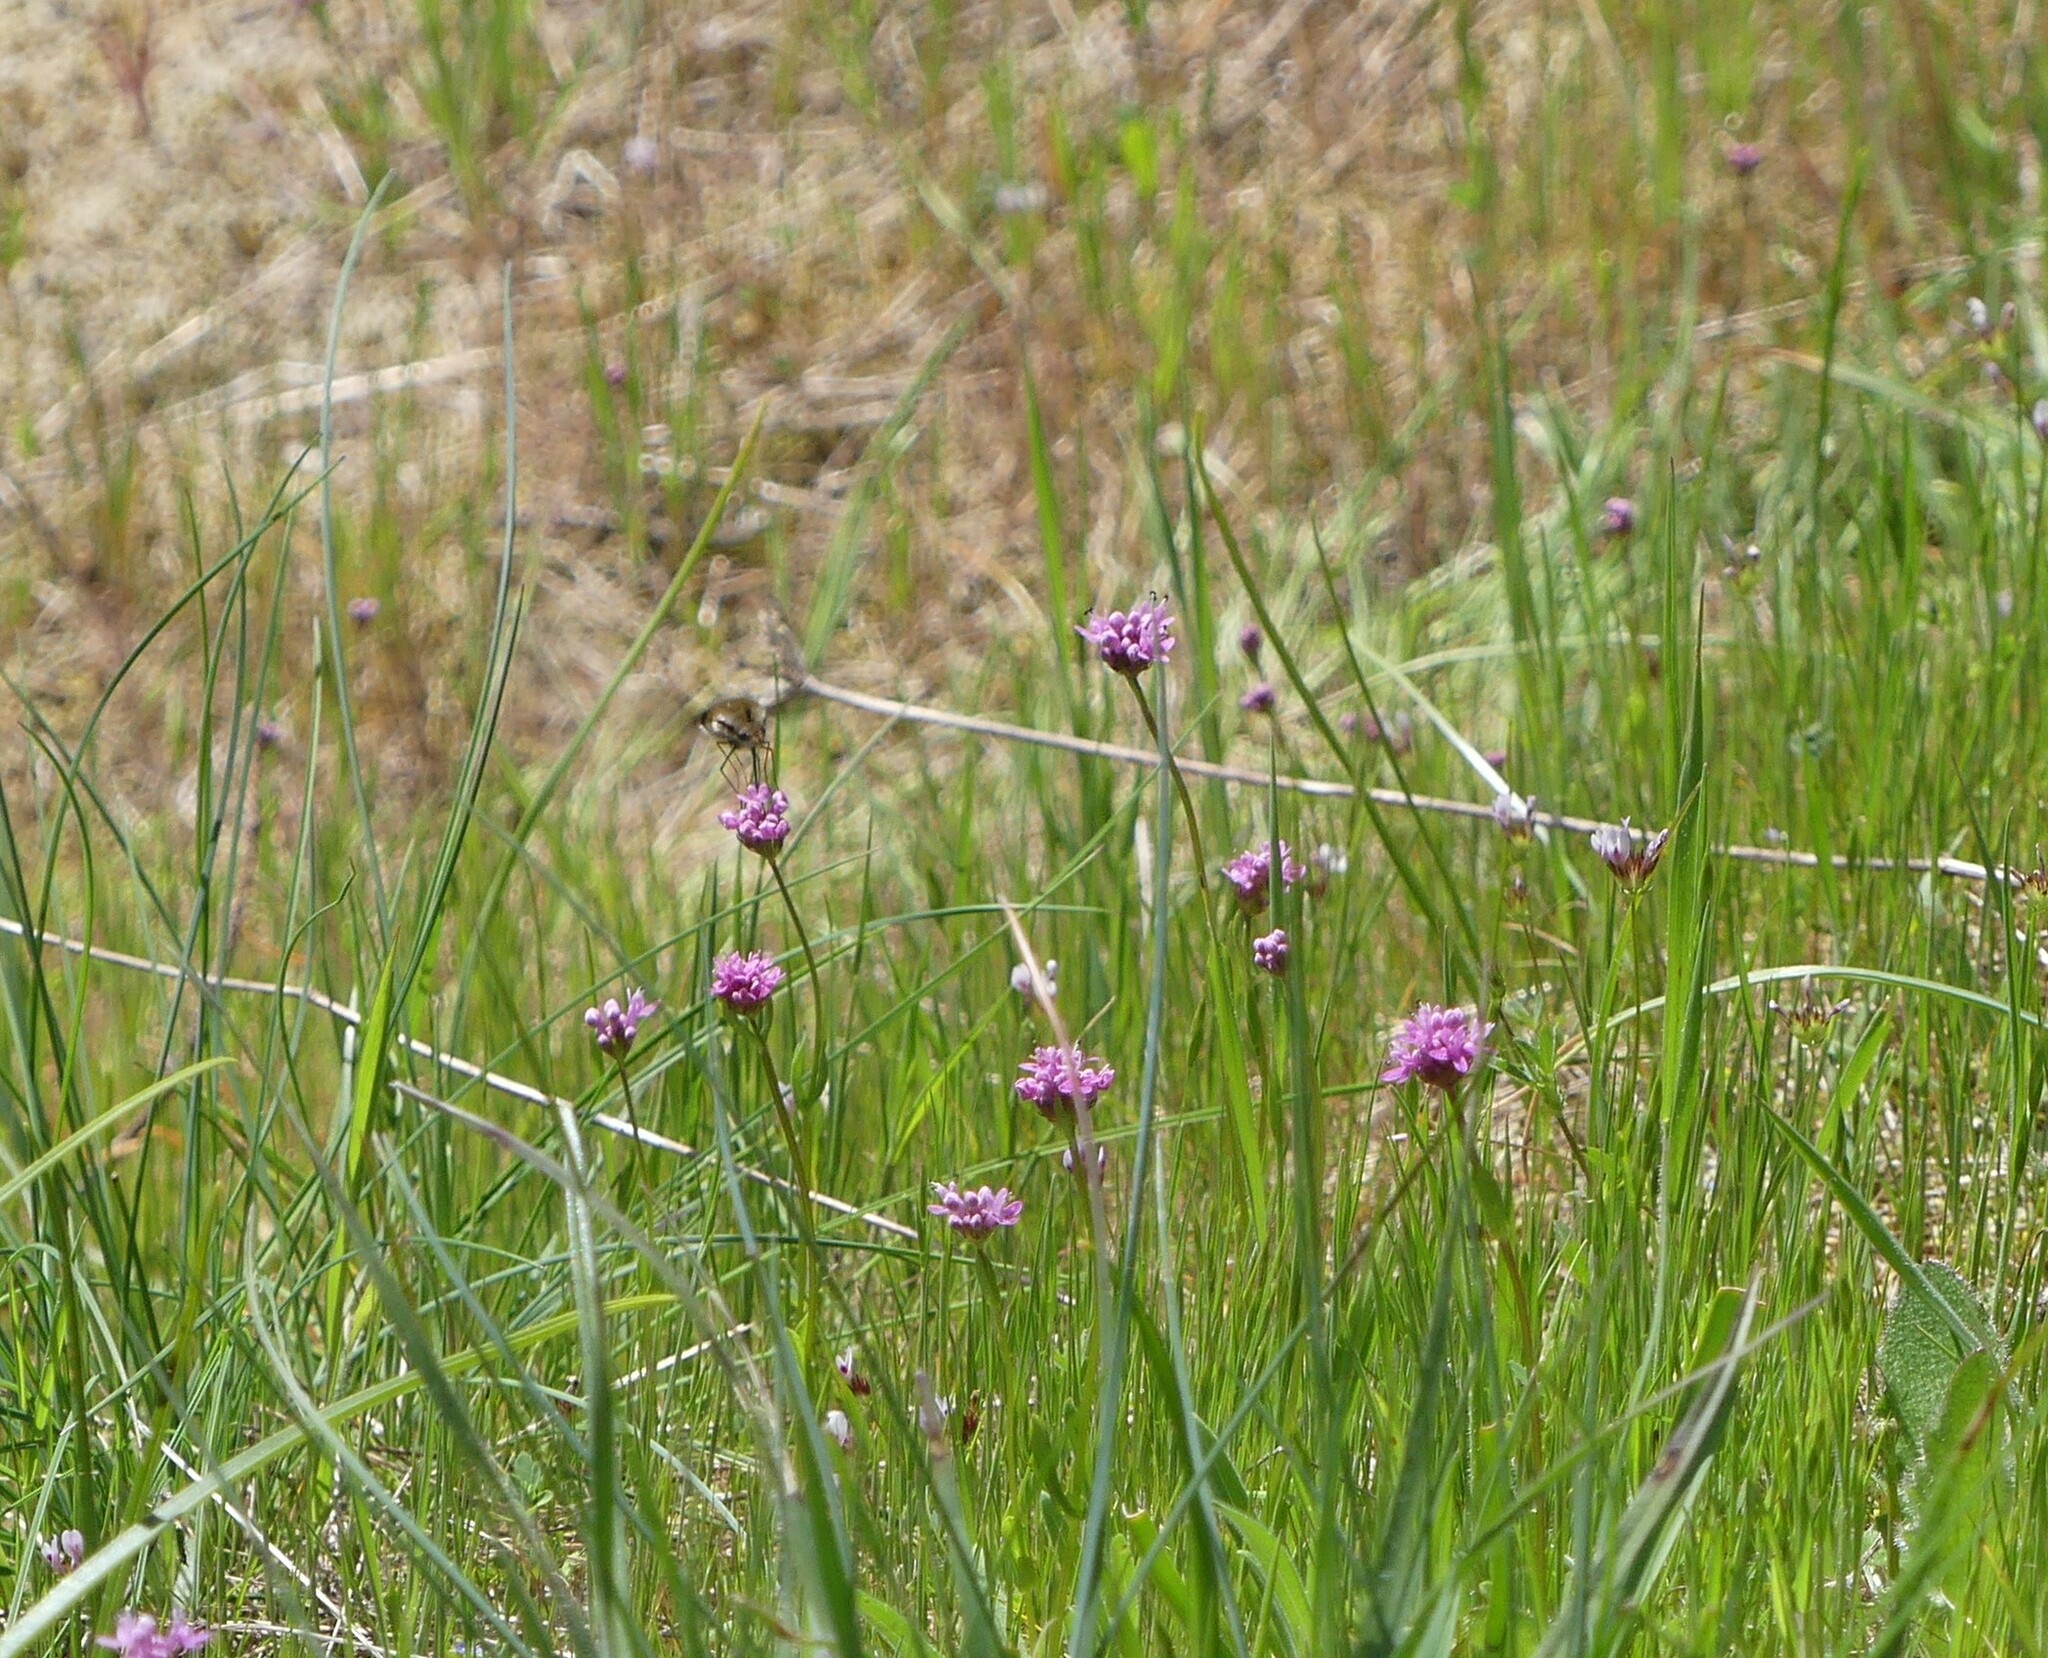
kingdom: Plantae
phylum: Tracheophyta
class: Magnoliopsida
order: Dipsacales
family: Caprifoliaceae
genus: Plectritis
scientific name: Plectritis congesta
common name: Pink plectritis
